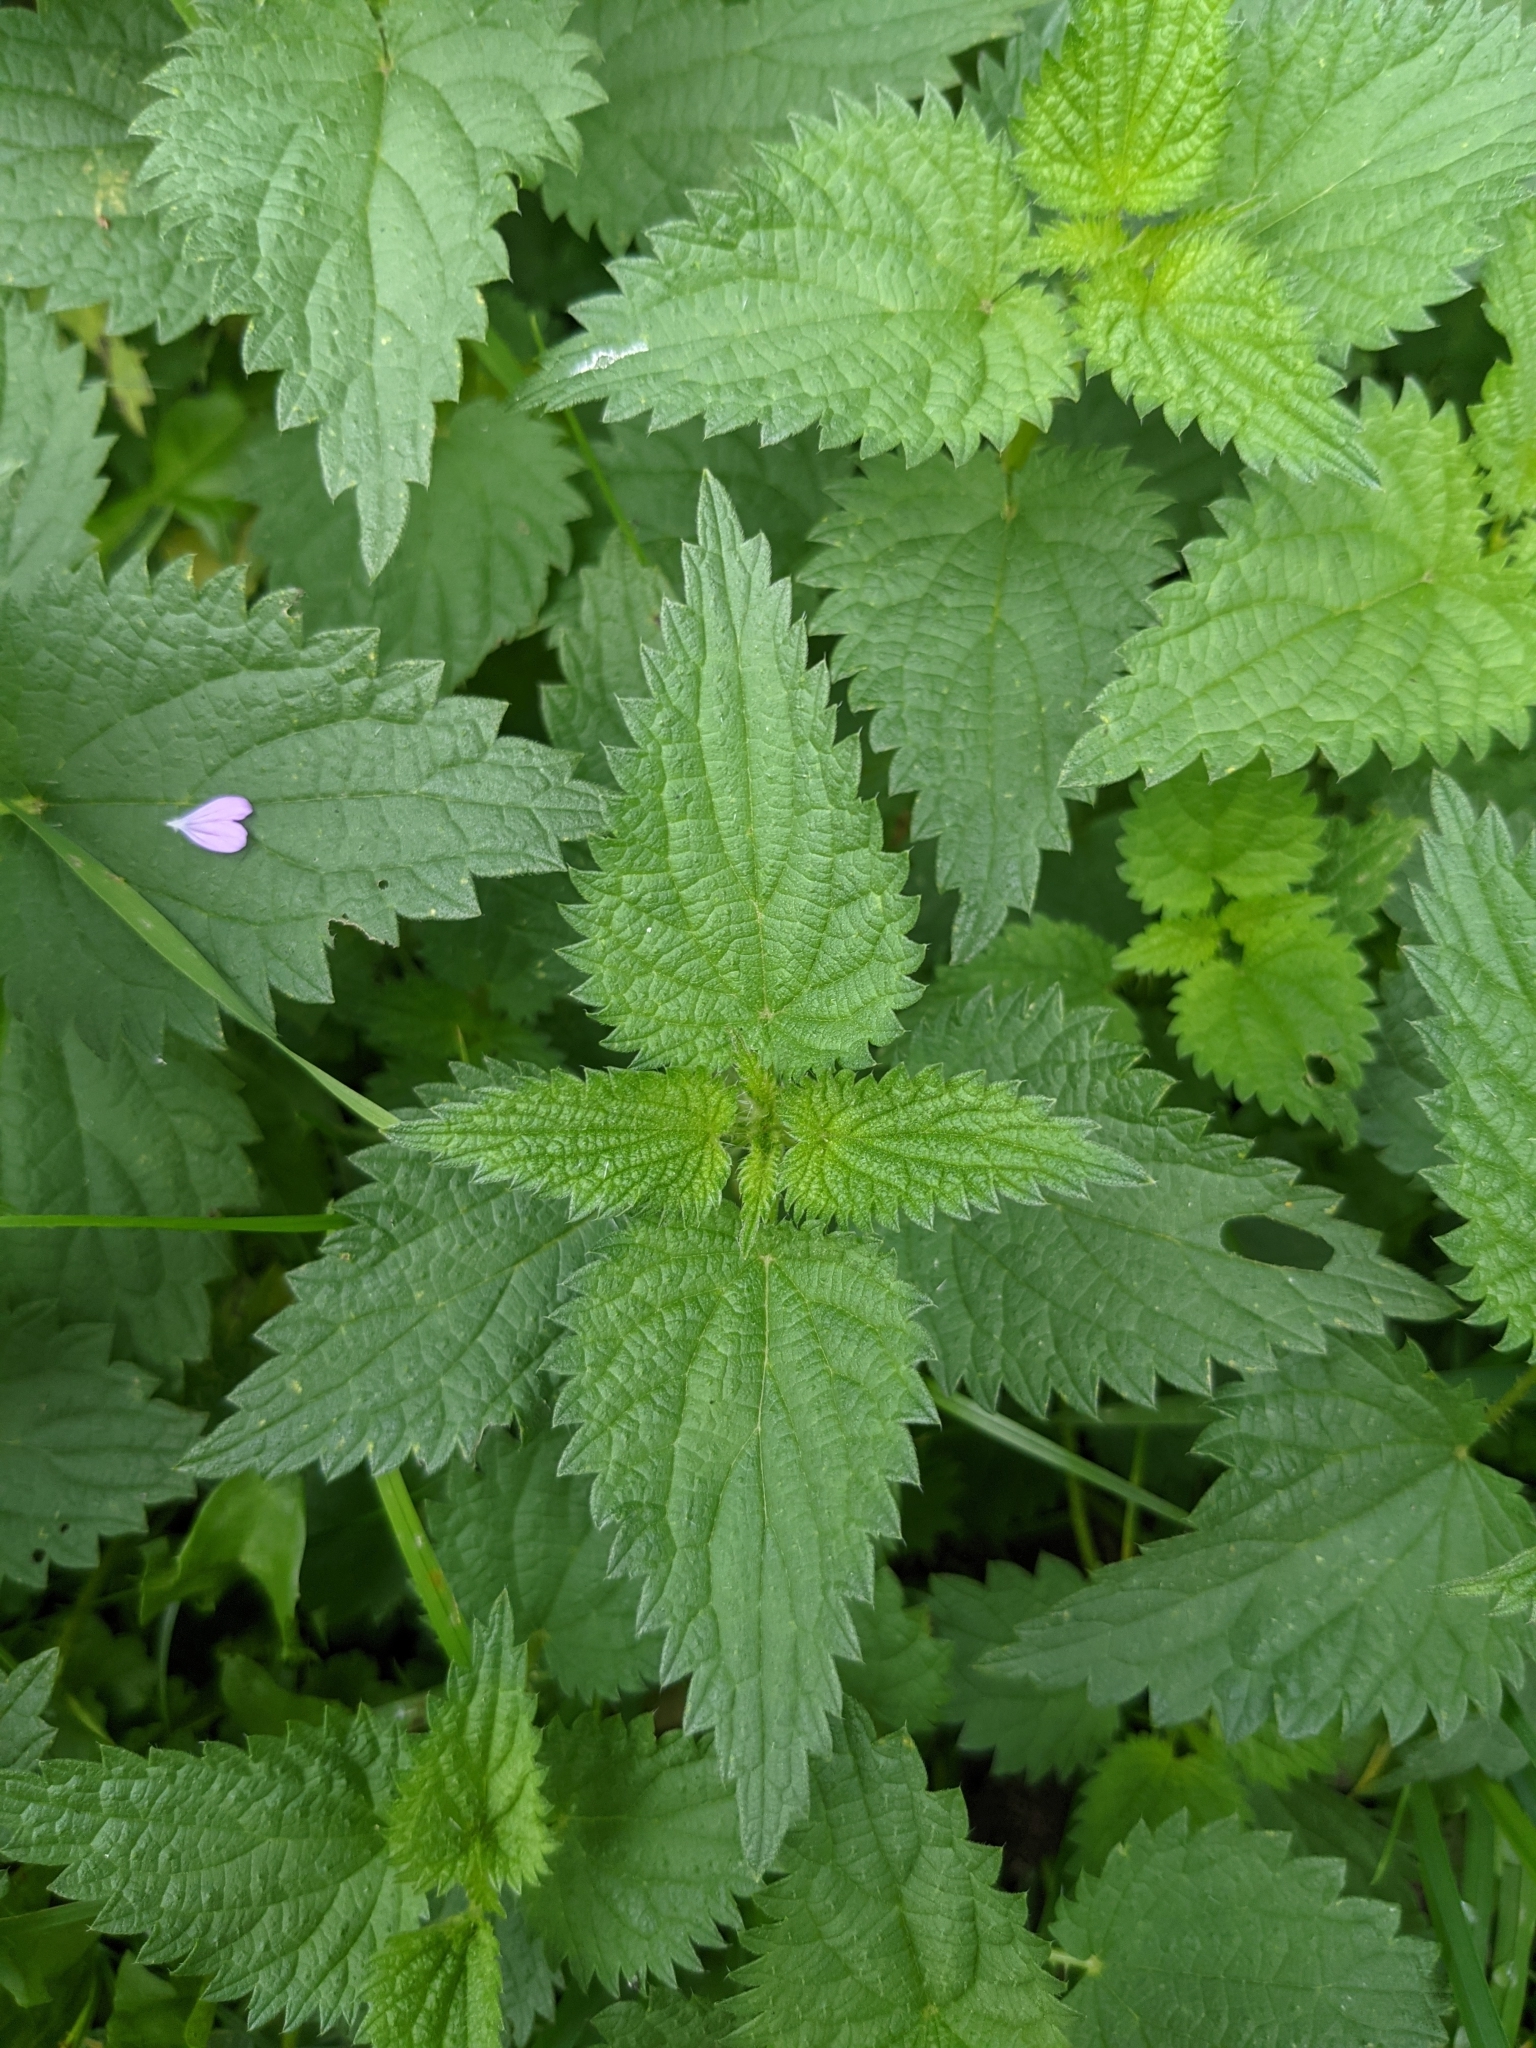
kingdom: Plantae
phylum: Tracheophyta
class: Magnoliopsida
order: Rosales
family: Urticaceae
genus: Urtica
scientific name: Urtica dioica
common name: Common nettle
